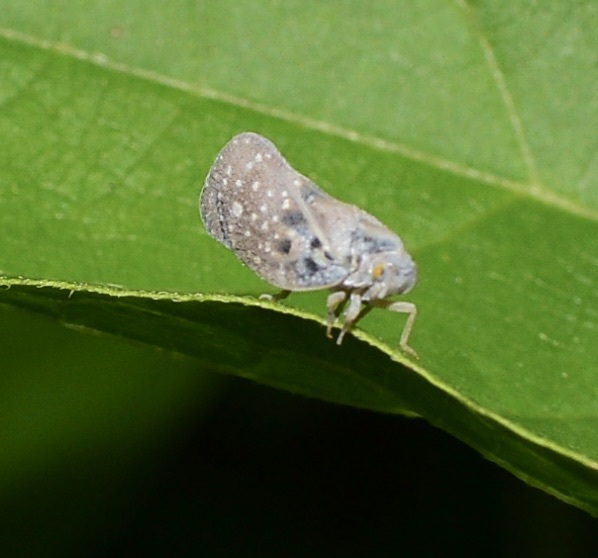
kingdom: Animalia
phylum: Arthropoda
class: Insecta
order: Hemiptera
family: Flatidae
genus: Metcalfa
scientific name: Metcalfa pruinosa
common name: Citrus flatid planthopper
